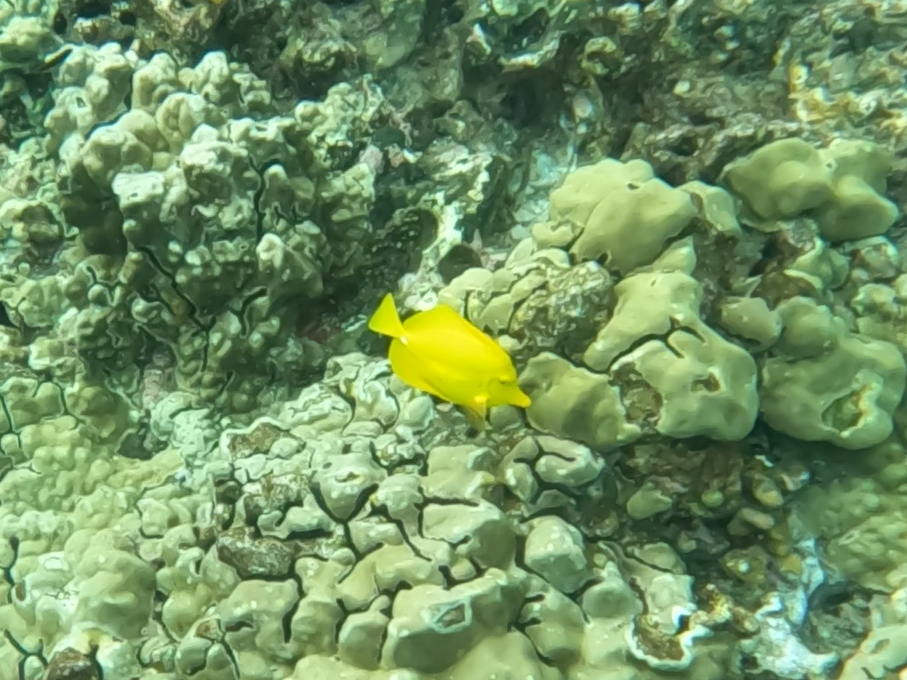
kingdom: Animalia
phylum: Chordata
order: Perciformes
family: Acanthuridae
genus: Zebrasoma
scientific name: Zebrasoma flavescens
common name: Yellow tang
